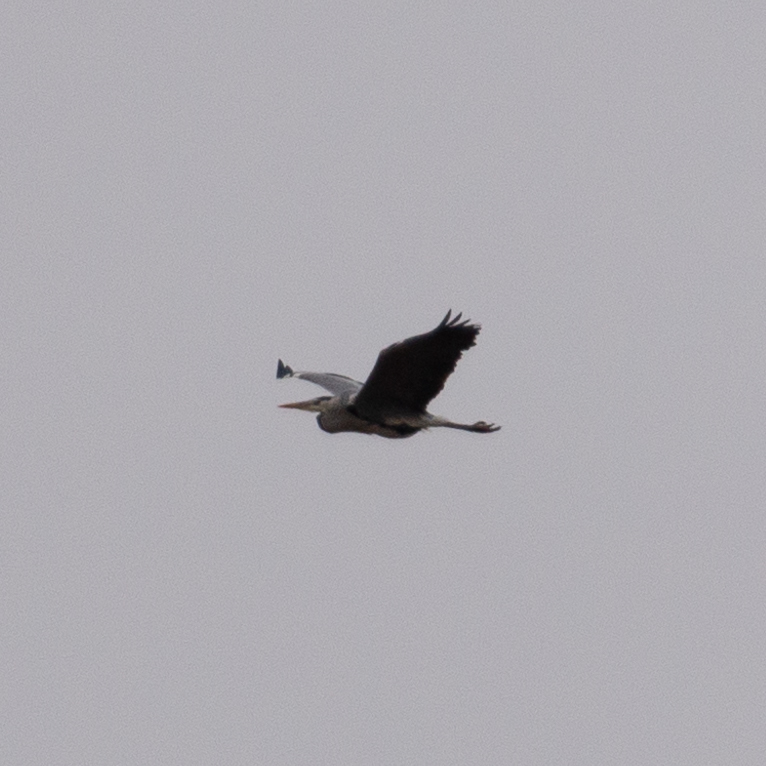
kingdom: Animalia
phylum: Chordata
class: Aves
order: Pelecaniformes
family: Ardeidae
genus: Ardea
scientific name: Ardea cinerea
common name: Grey heron
